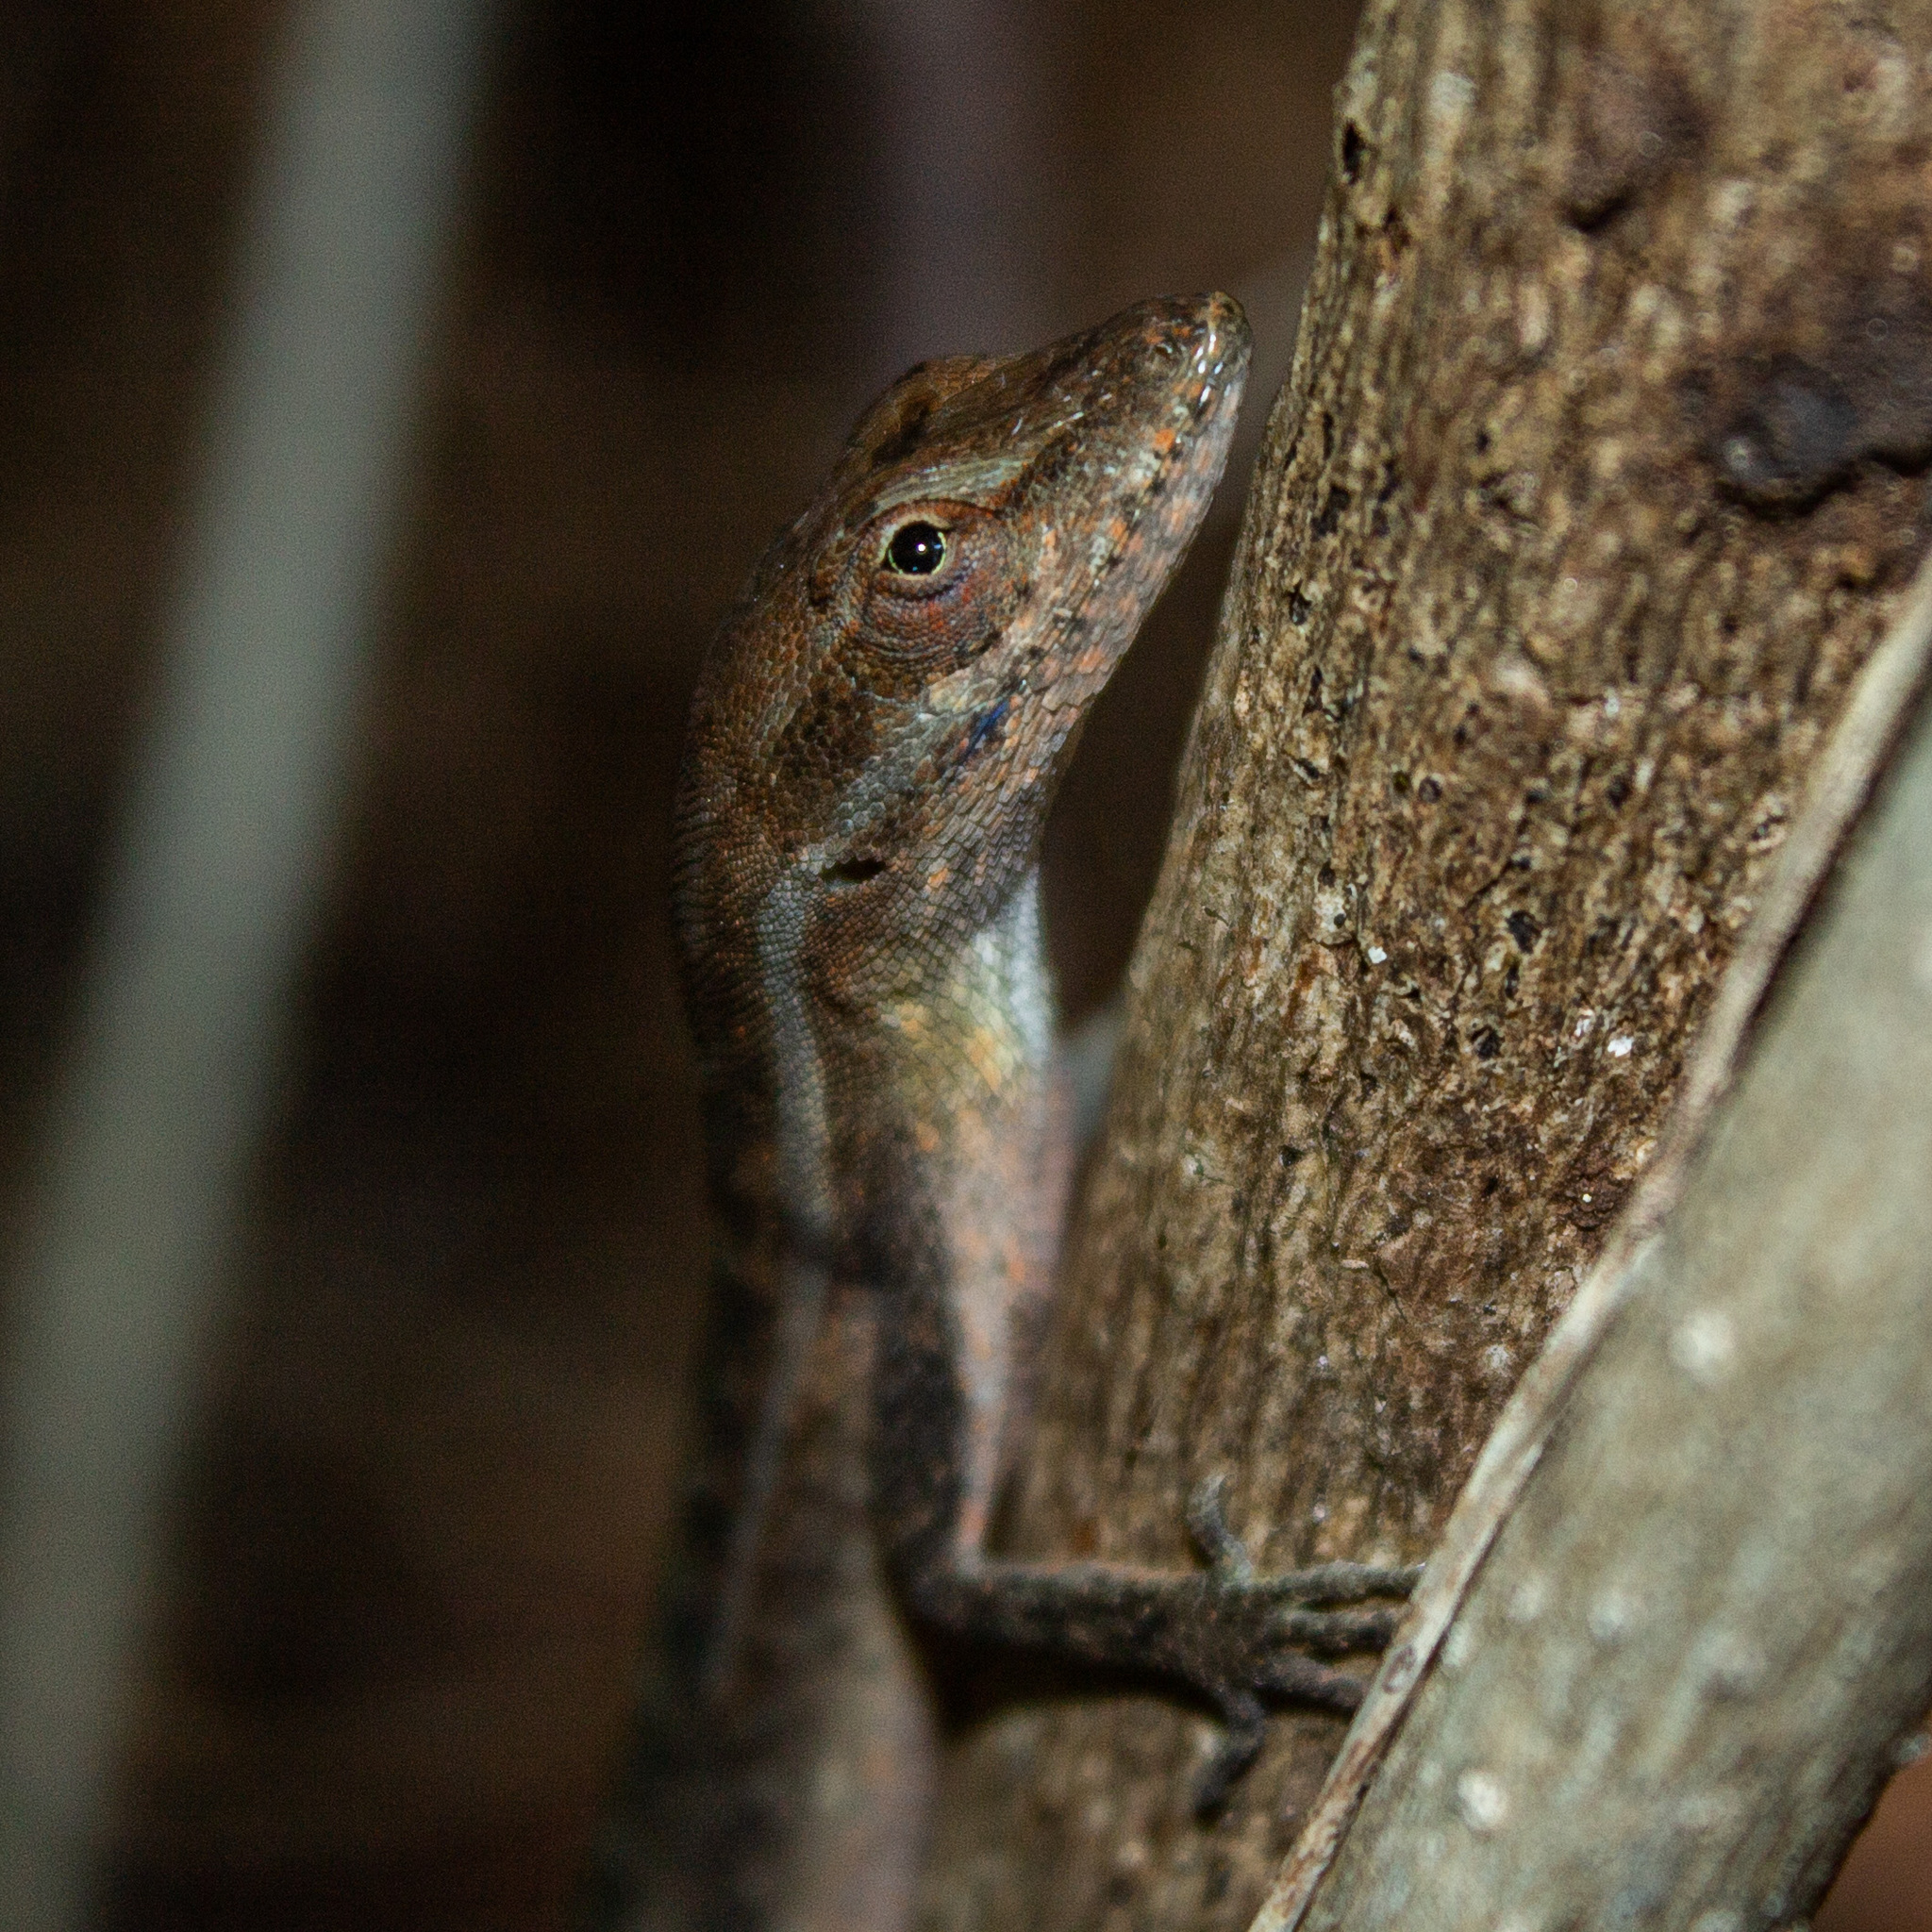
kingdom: Animalia
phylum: Chordata
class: Squamata
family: Dactyloidae
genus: Anolis
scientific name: Anolis auratus
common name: Grass anole
